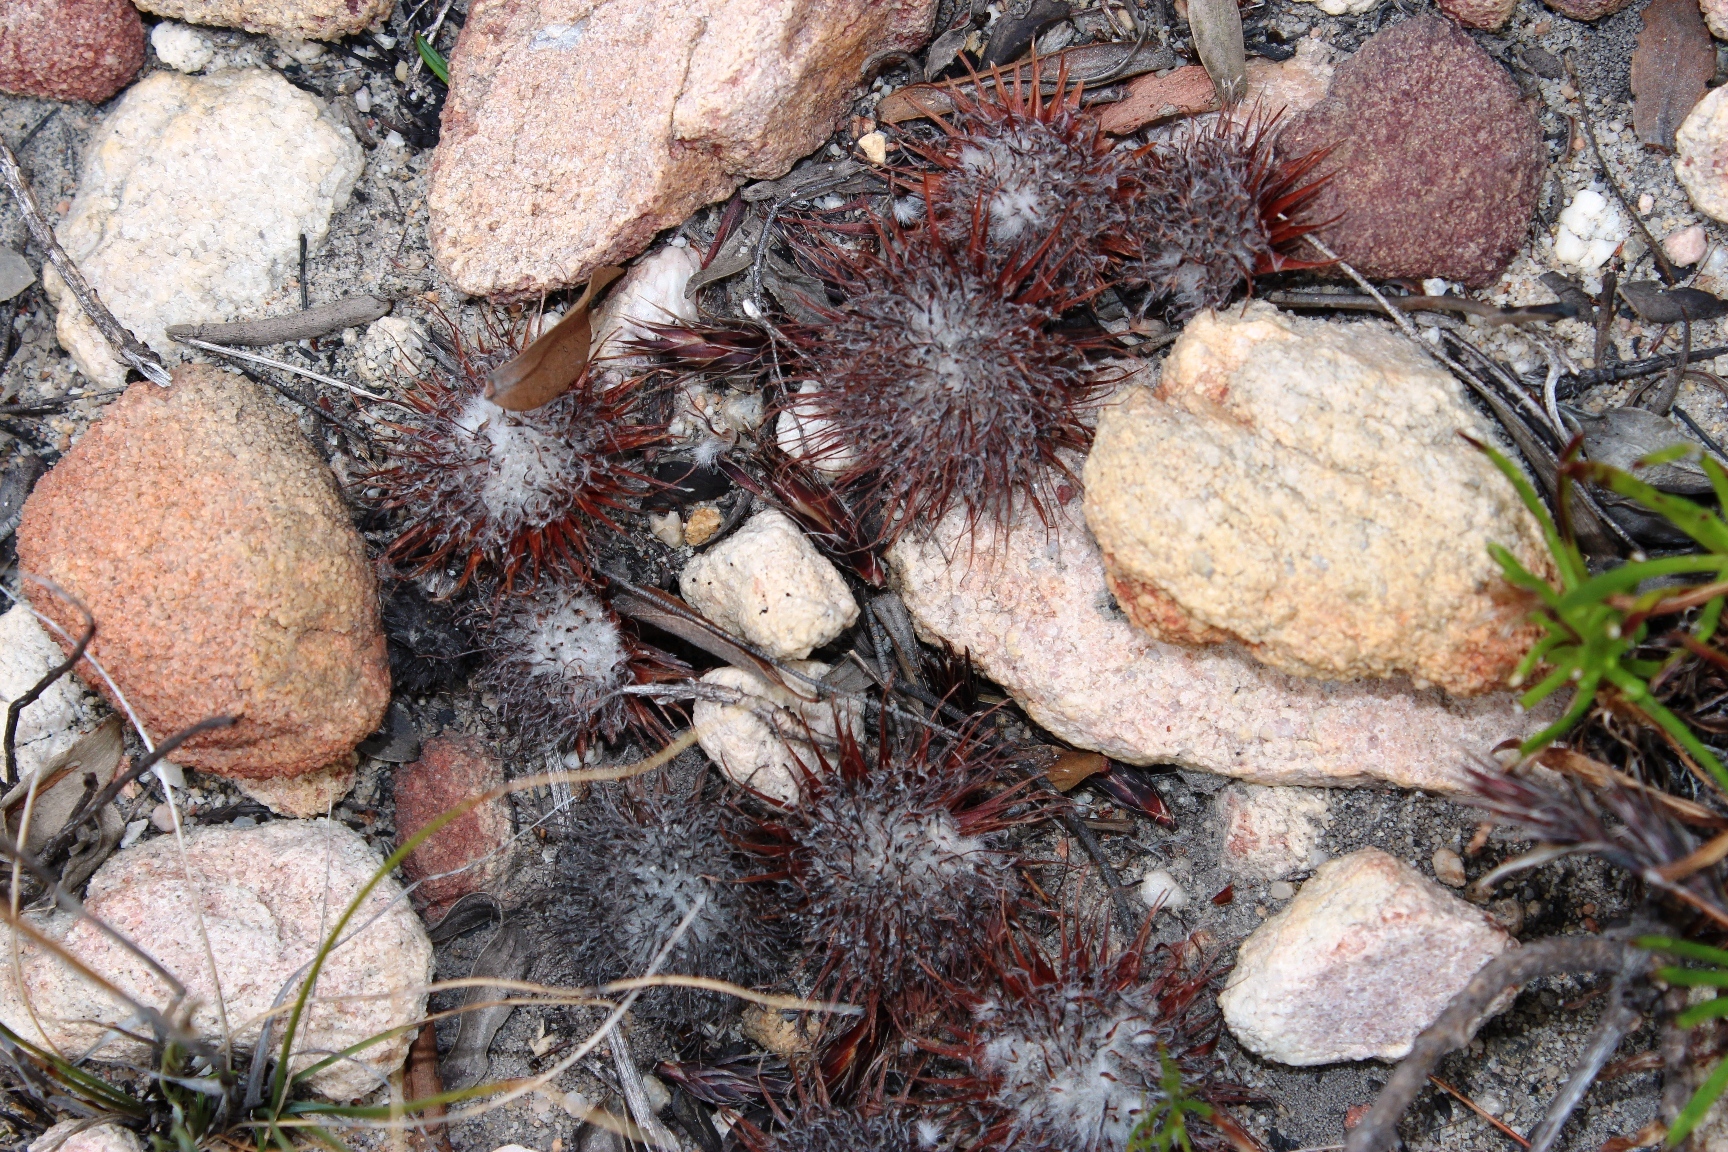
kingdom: Plantae
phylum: Tracheophyta
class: Magnoliopsida
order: Proteales
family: Proteaceae
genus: Leucospermum
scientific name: Leucospermum oleifolium
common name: Matches
